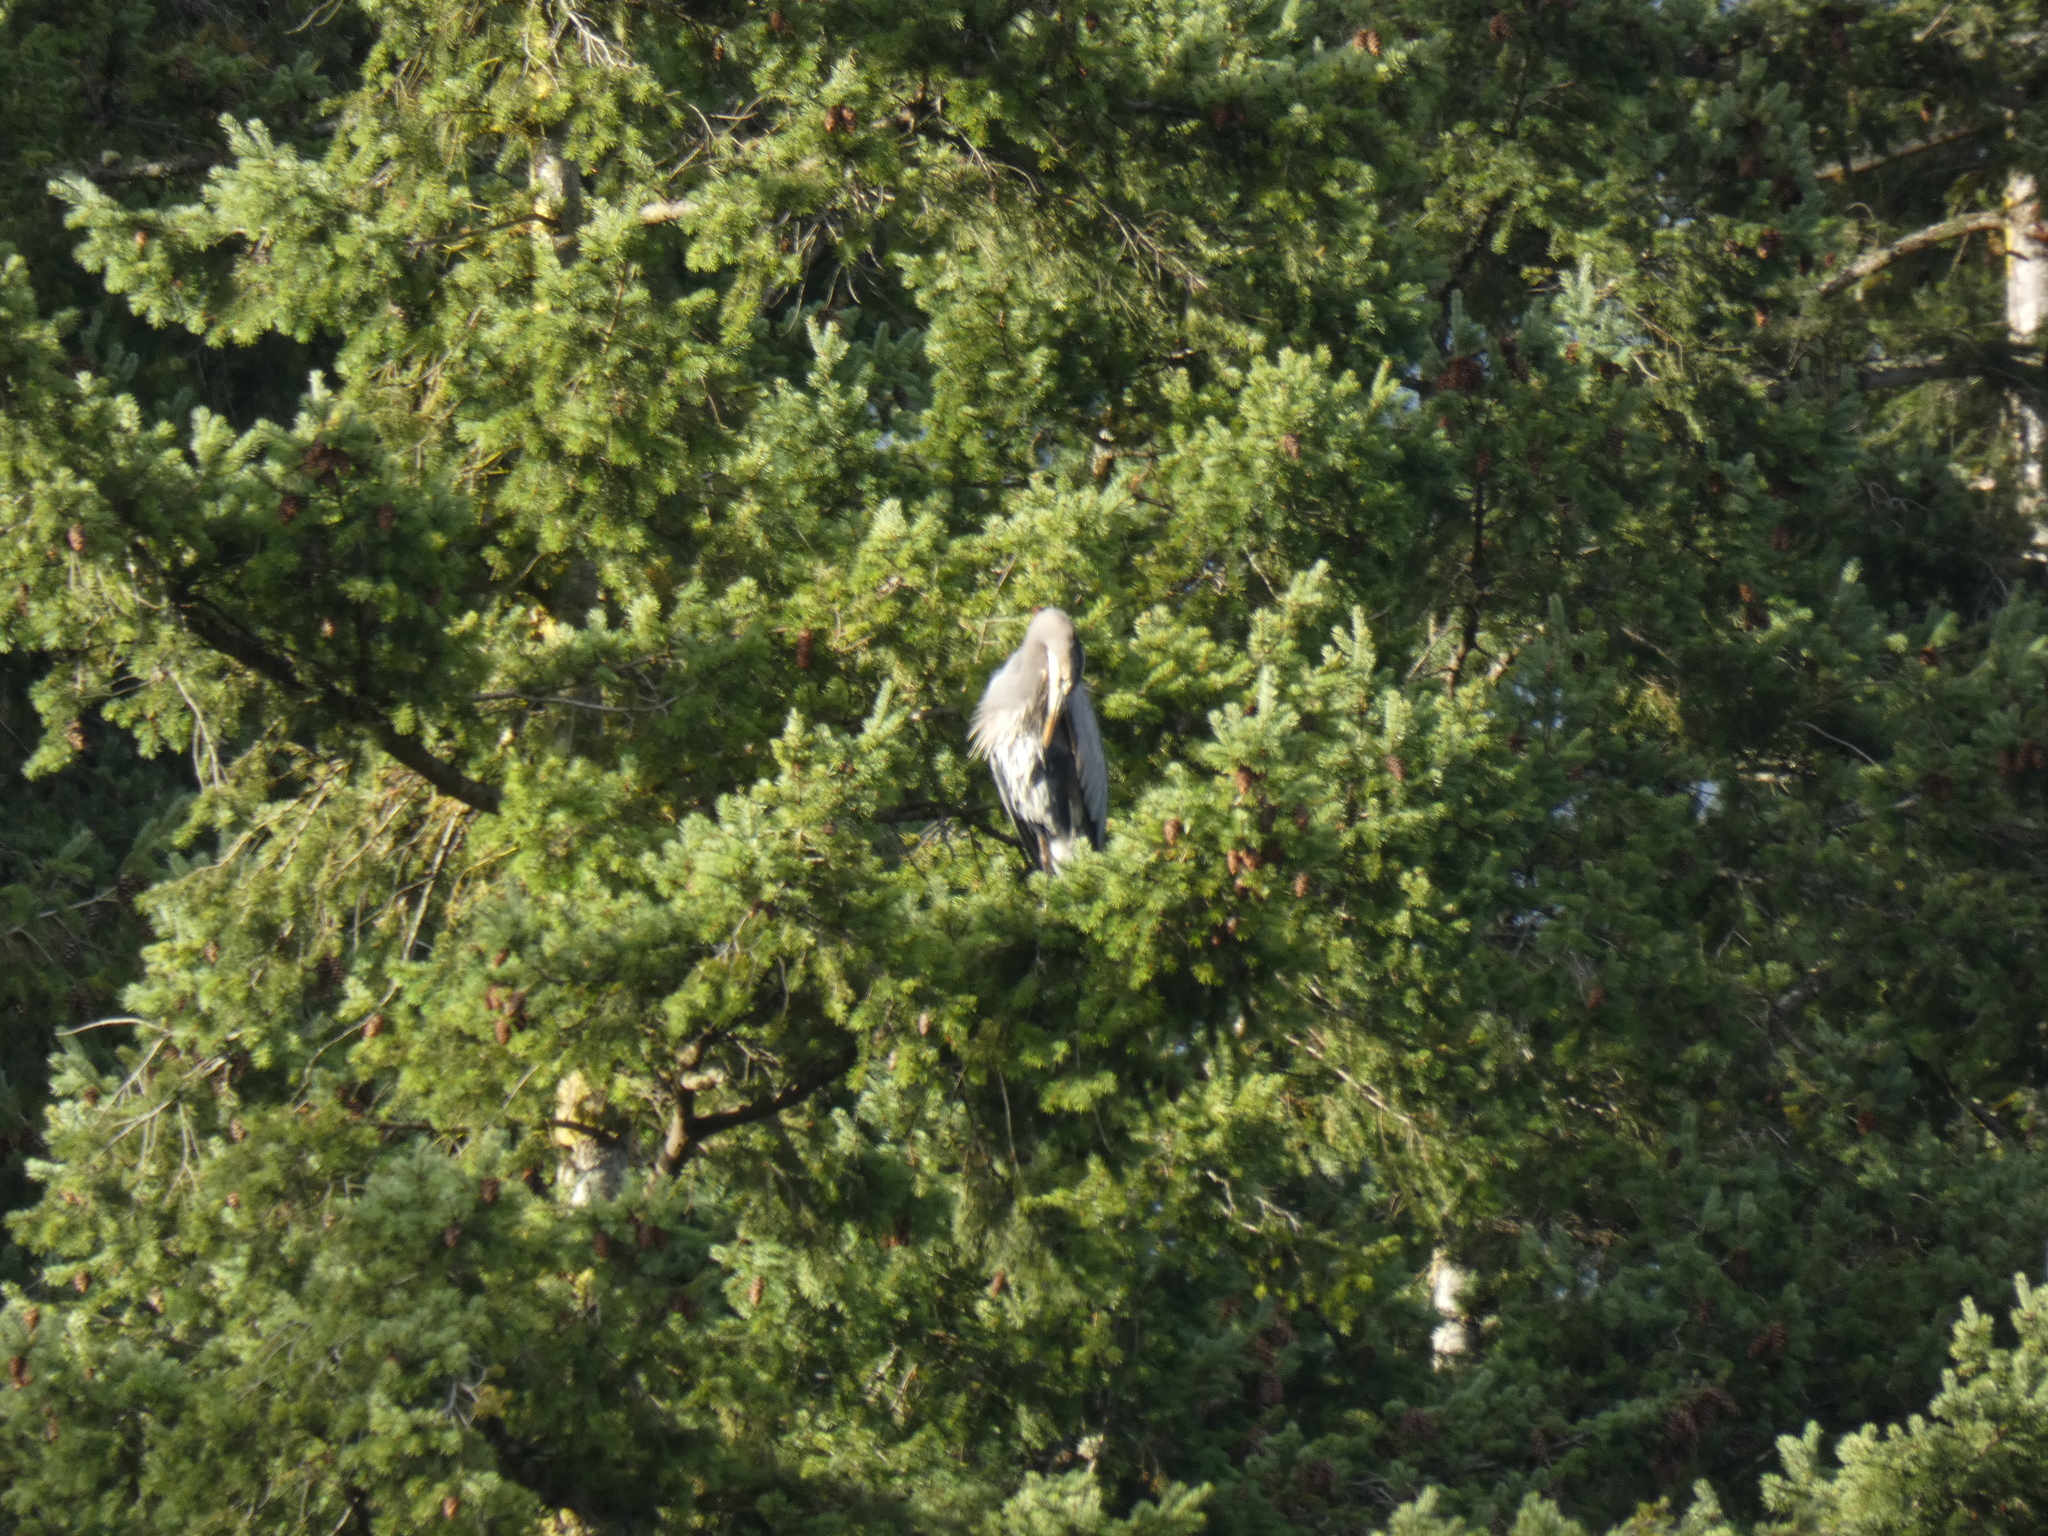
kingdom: Animalia
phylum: Chordata
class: Aves
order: Pelecaniformes
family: Ardeidae
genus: Ardea
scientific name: Ardea herodias
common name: Great blue heron
